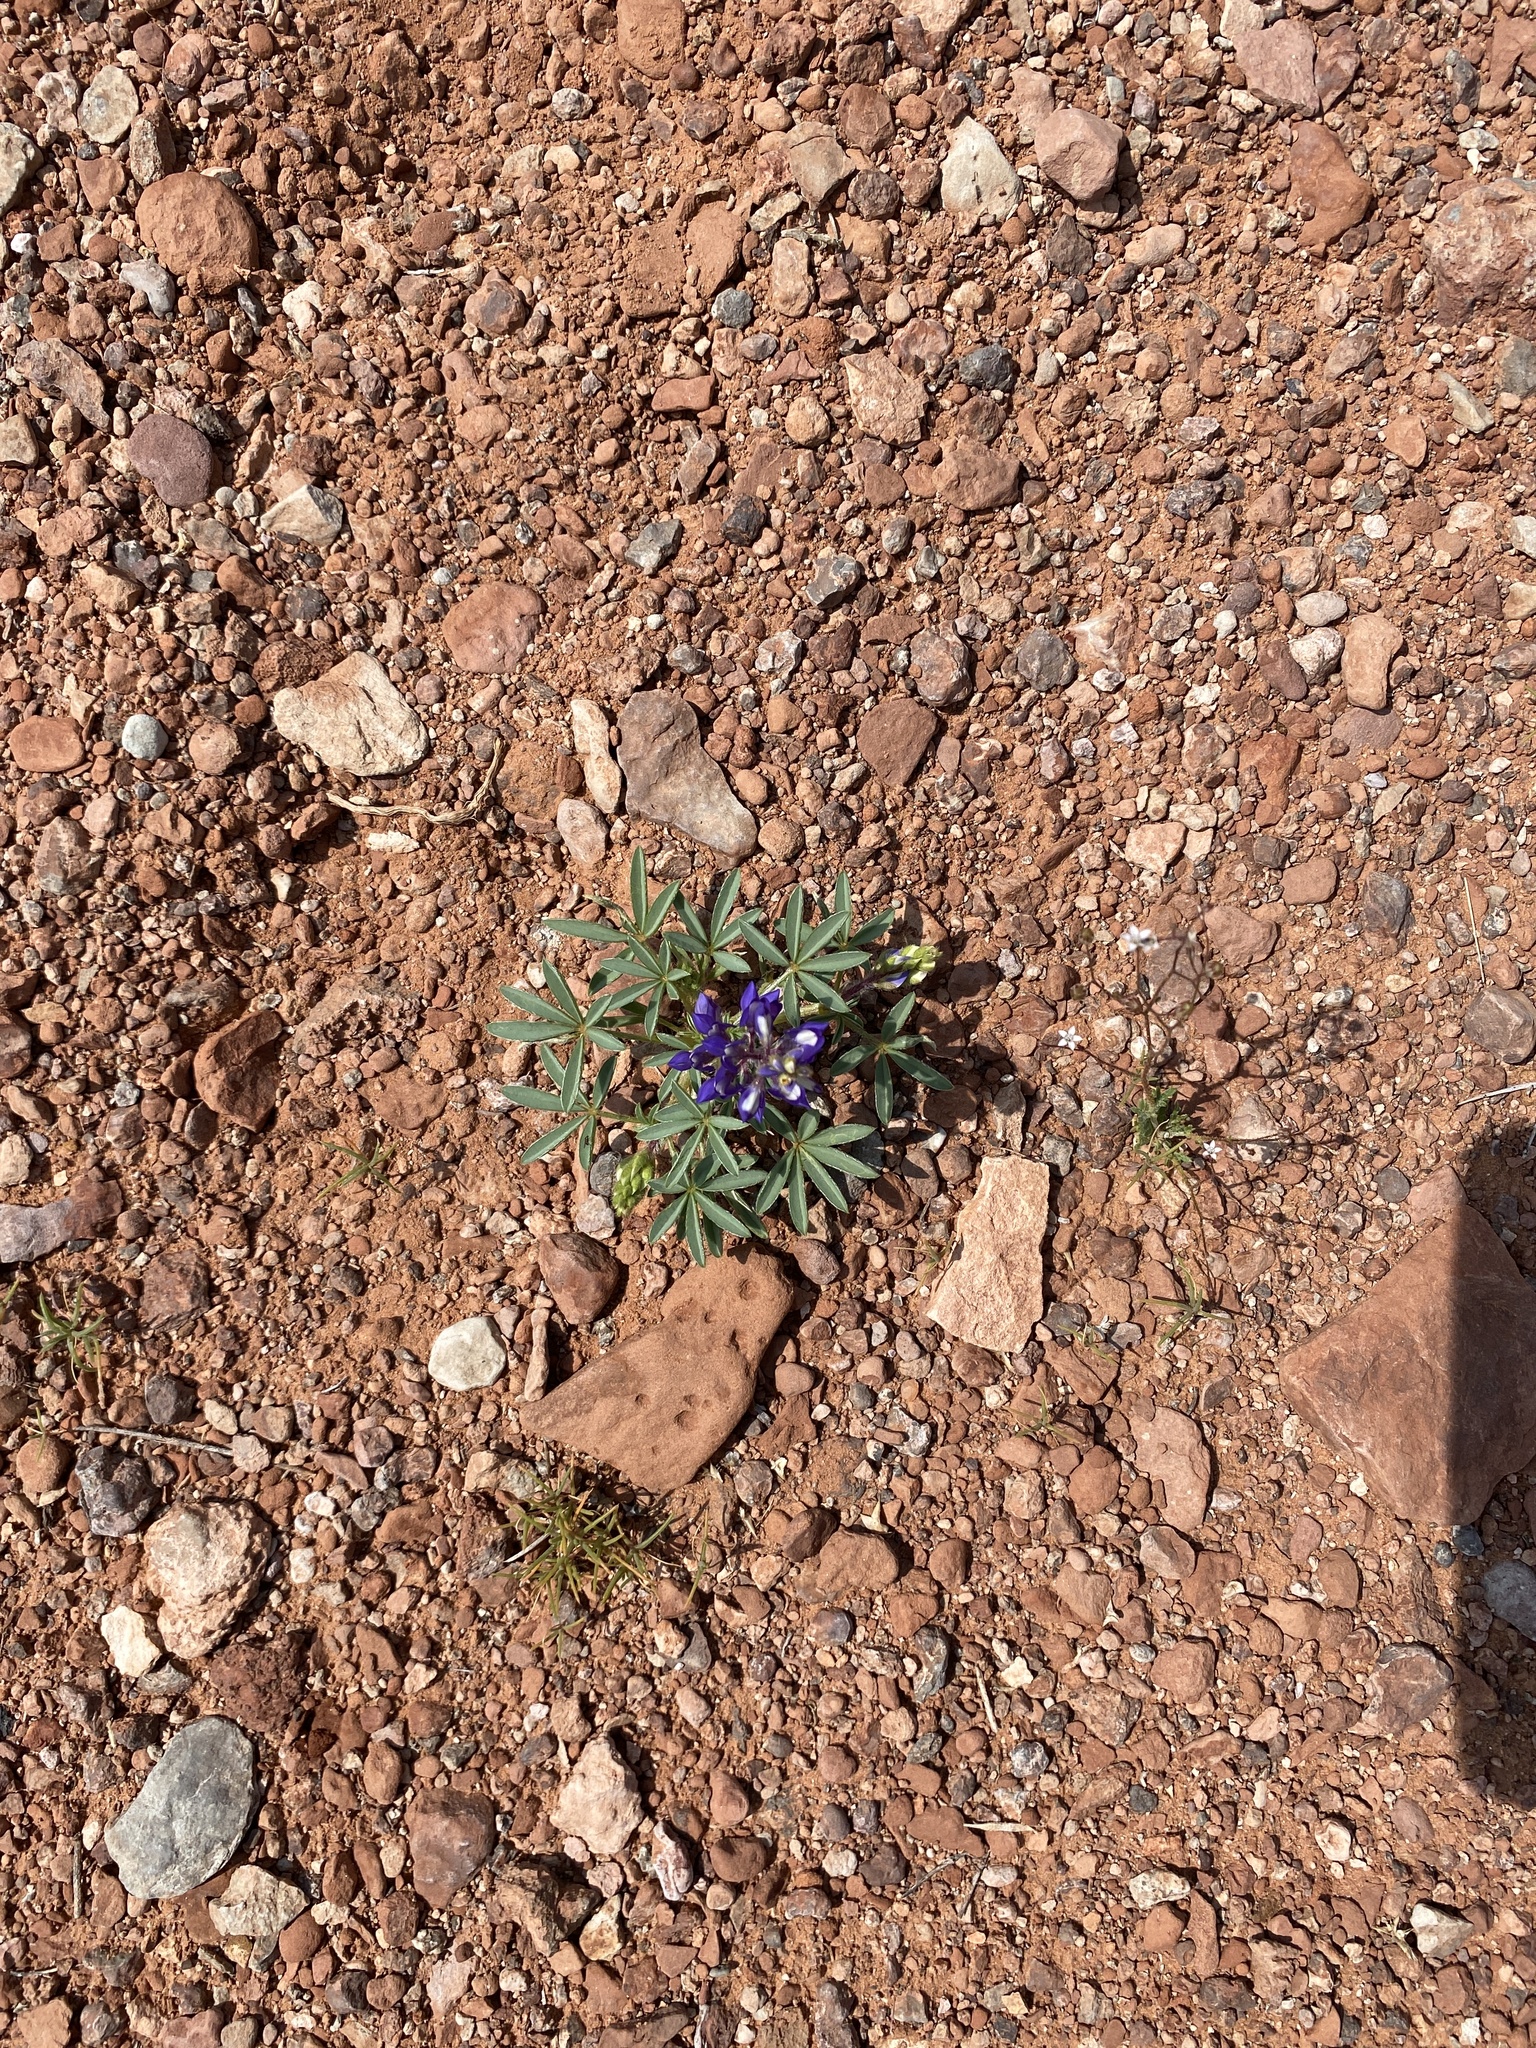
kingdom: Plantae
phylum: Tracheophyta
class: Magnoliopsida
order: Fabales
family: Fabaceae
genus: Lupinus
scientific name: Lupinus pusillus
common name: Low lupine
